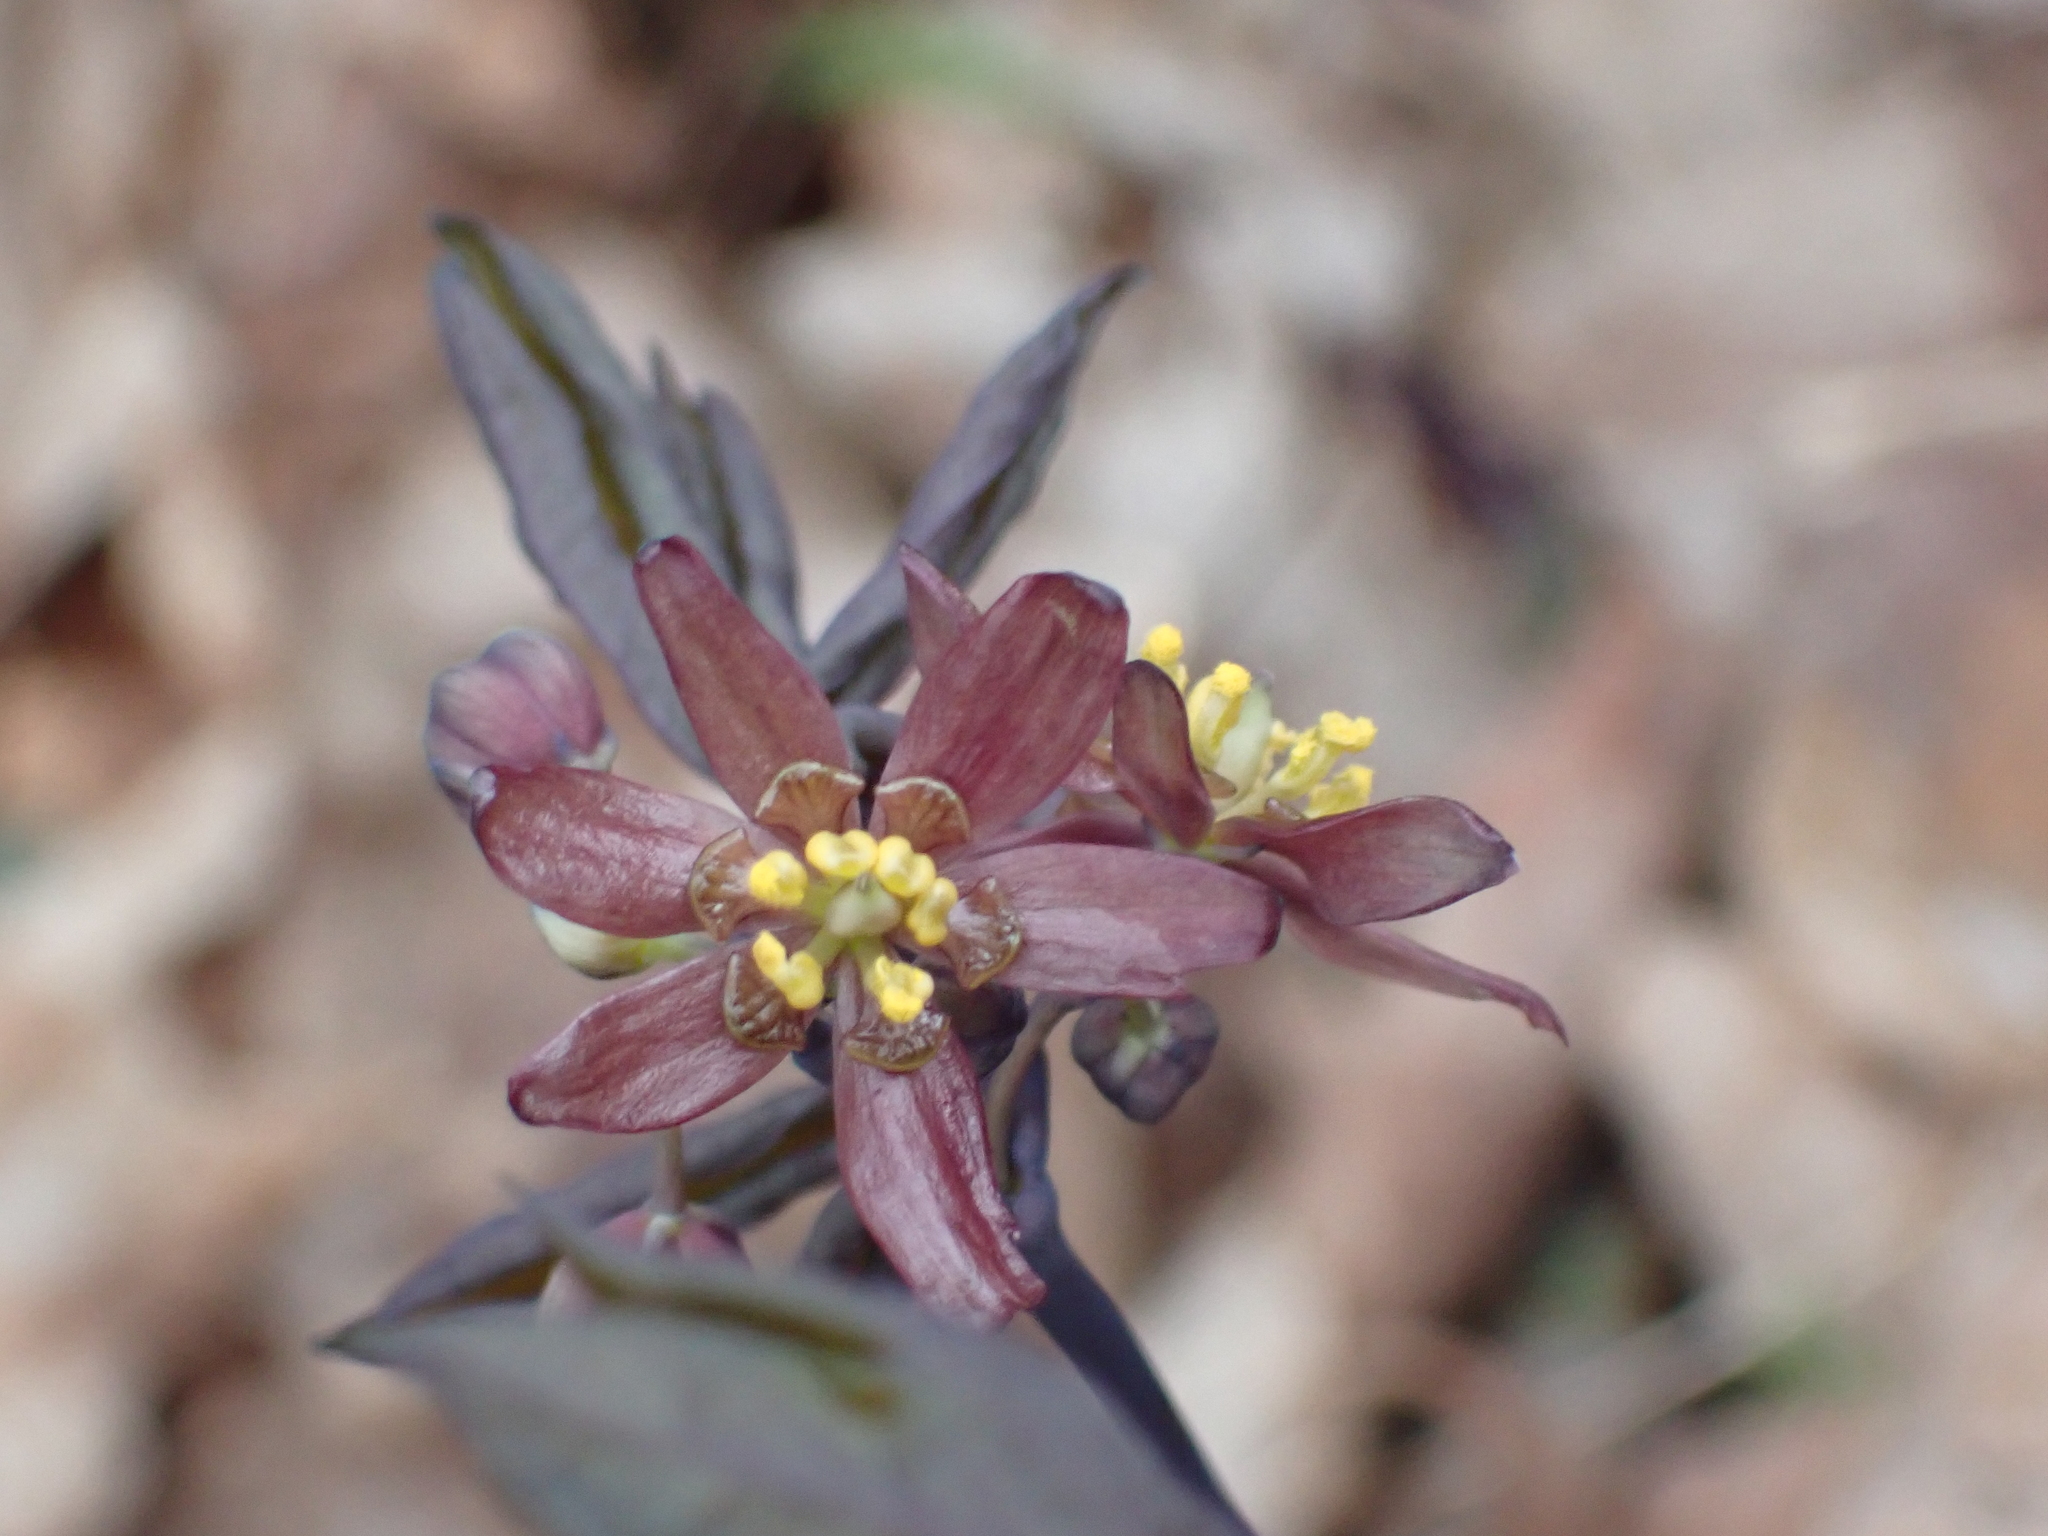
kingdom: Plantae
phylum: Tracheophyta
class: Magnoliopsida
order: Ranunculales
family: Berberidaceae
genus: Caulophyllum
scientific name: Caulophyllum giganteum
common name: Blue cohosh
